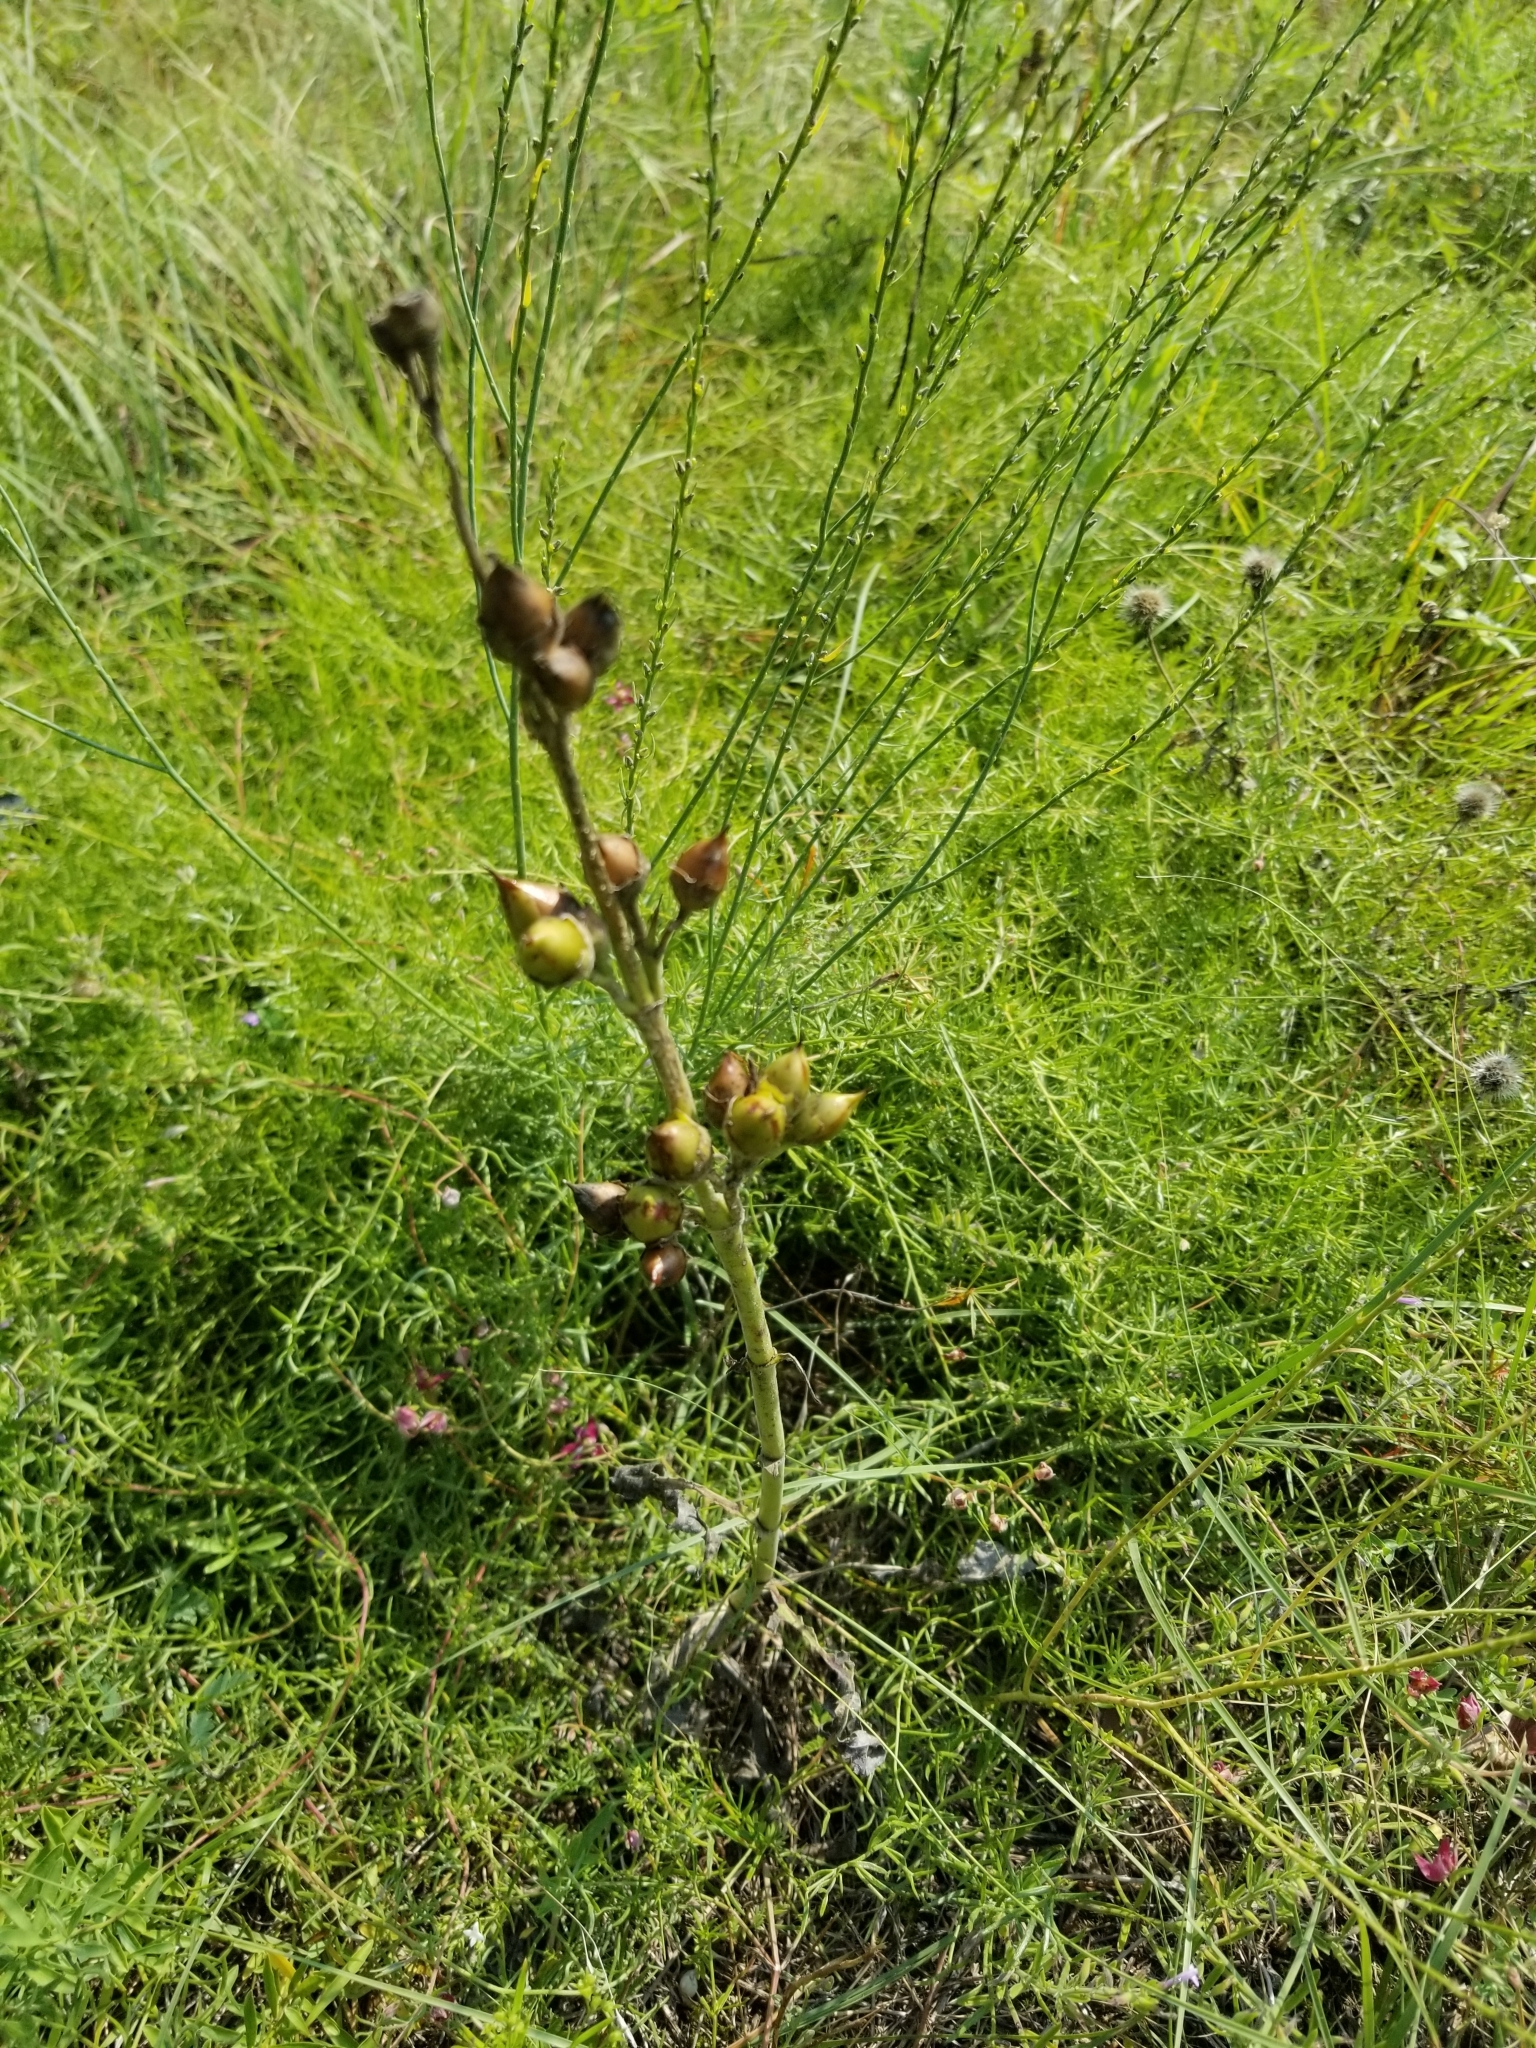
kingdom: Plantae
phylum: Tracheophyta
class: Magnoliopsida
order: Lamiales
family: Plantaginaceae
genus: Penstemon
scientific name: Penstemon cobaea
